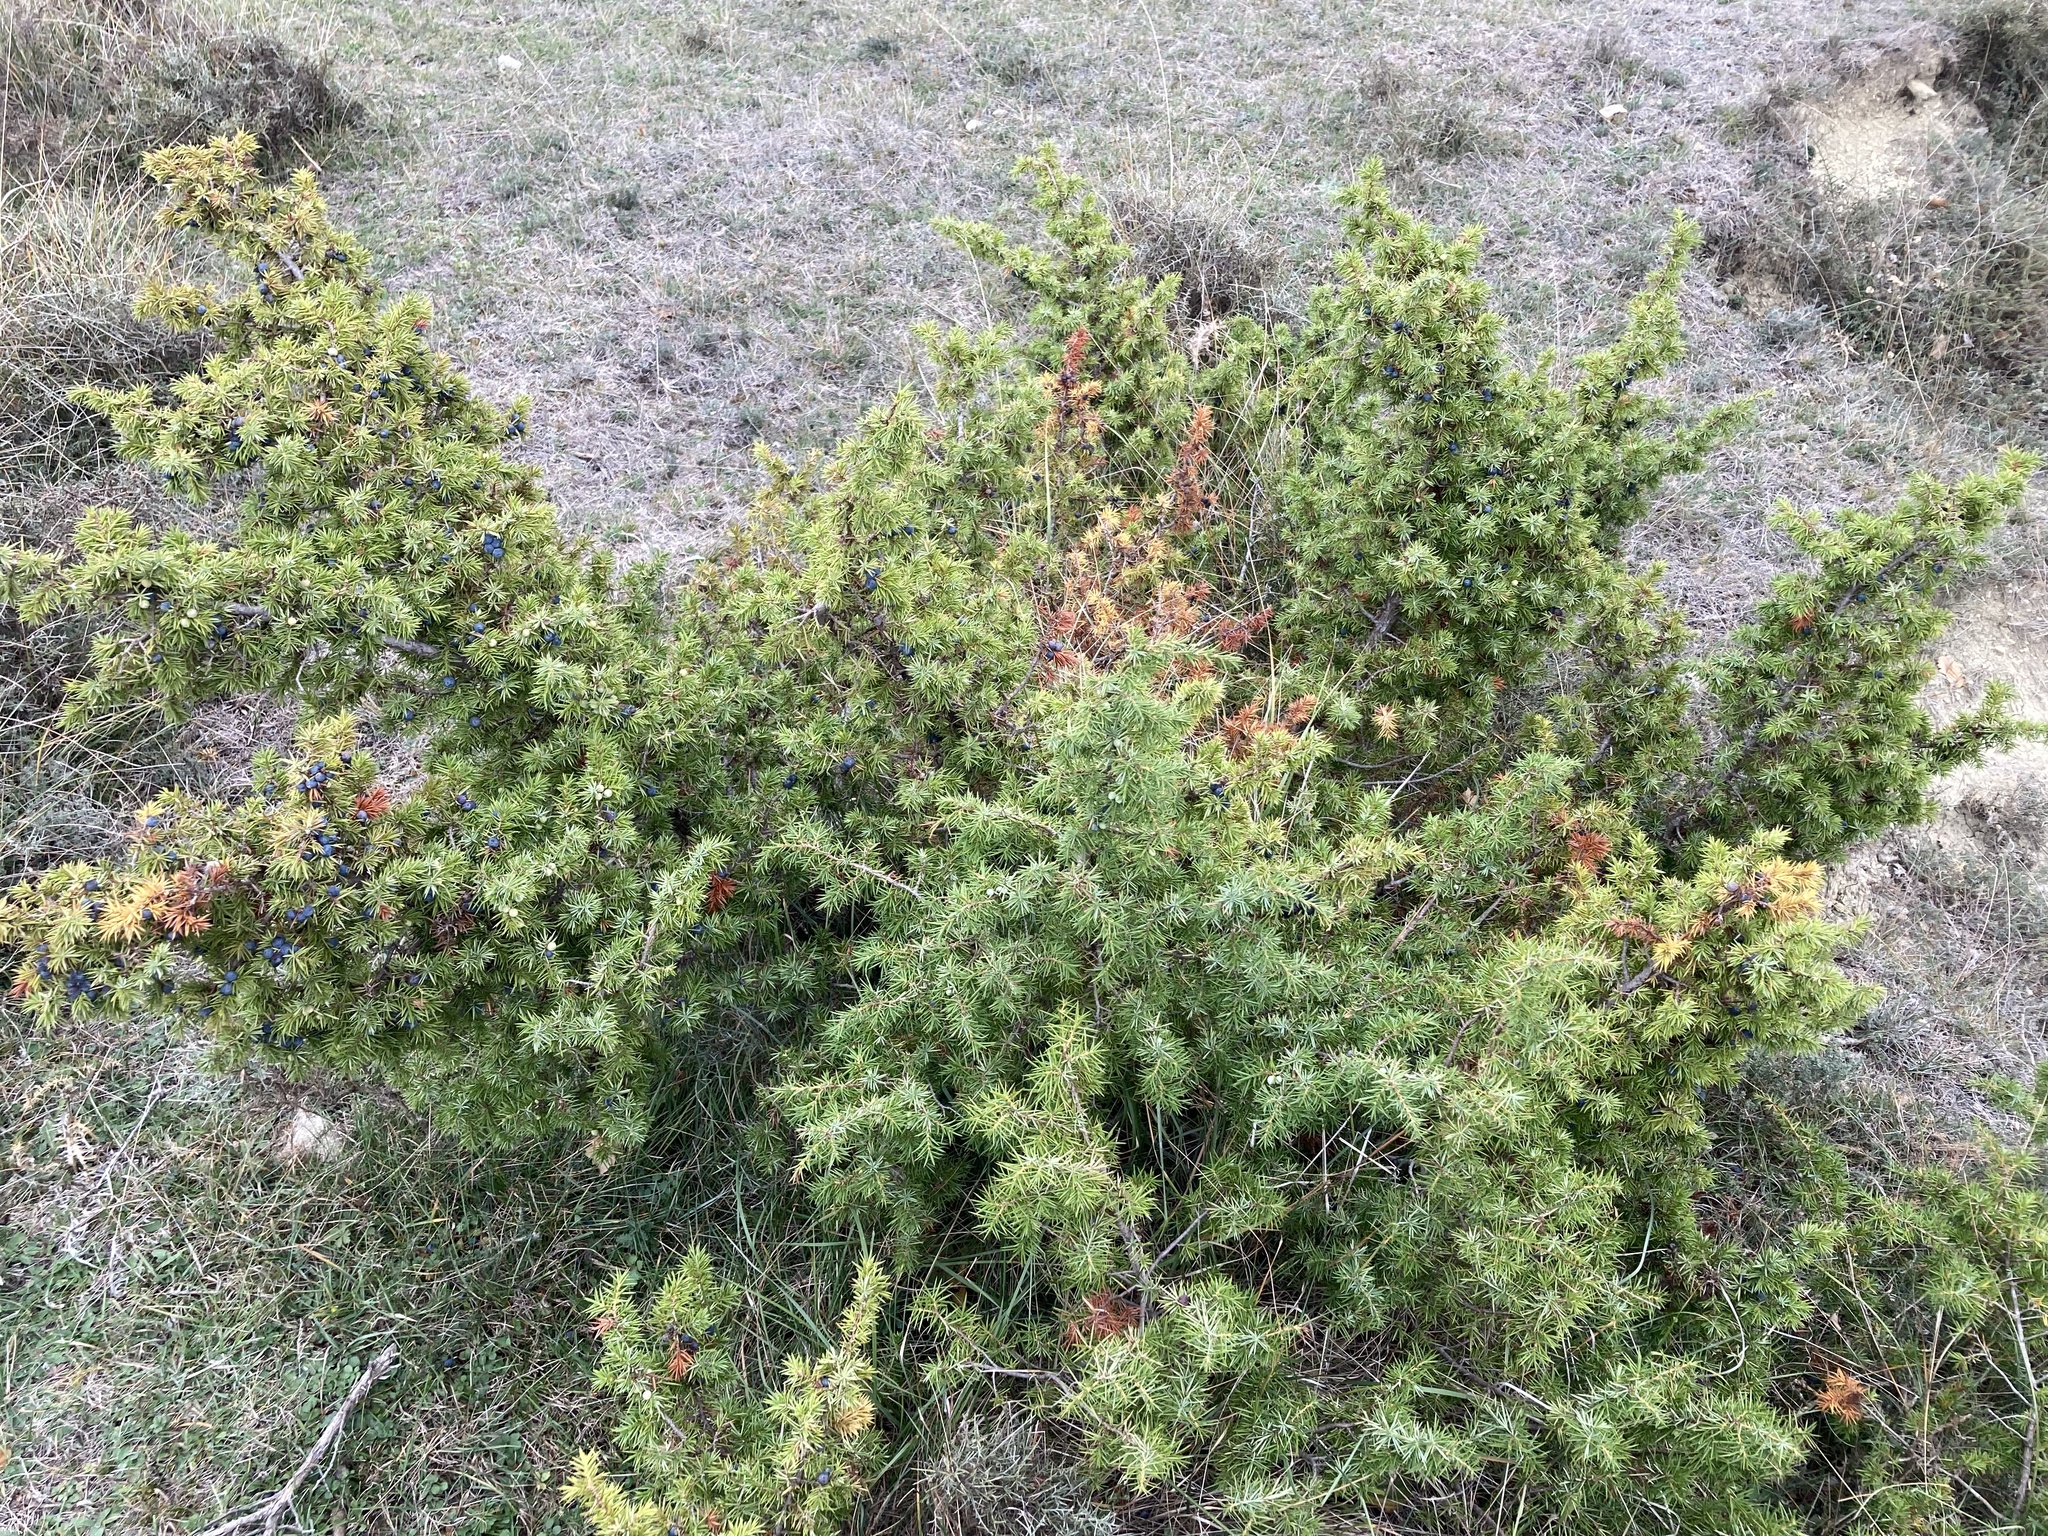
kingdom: Plantae
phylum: Tracheophyta
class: Pinopsida
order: Pinales
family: Cupressaceae
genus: Juniperus
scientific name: Juniperus communis
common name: Common juniper
